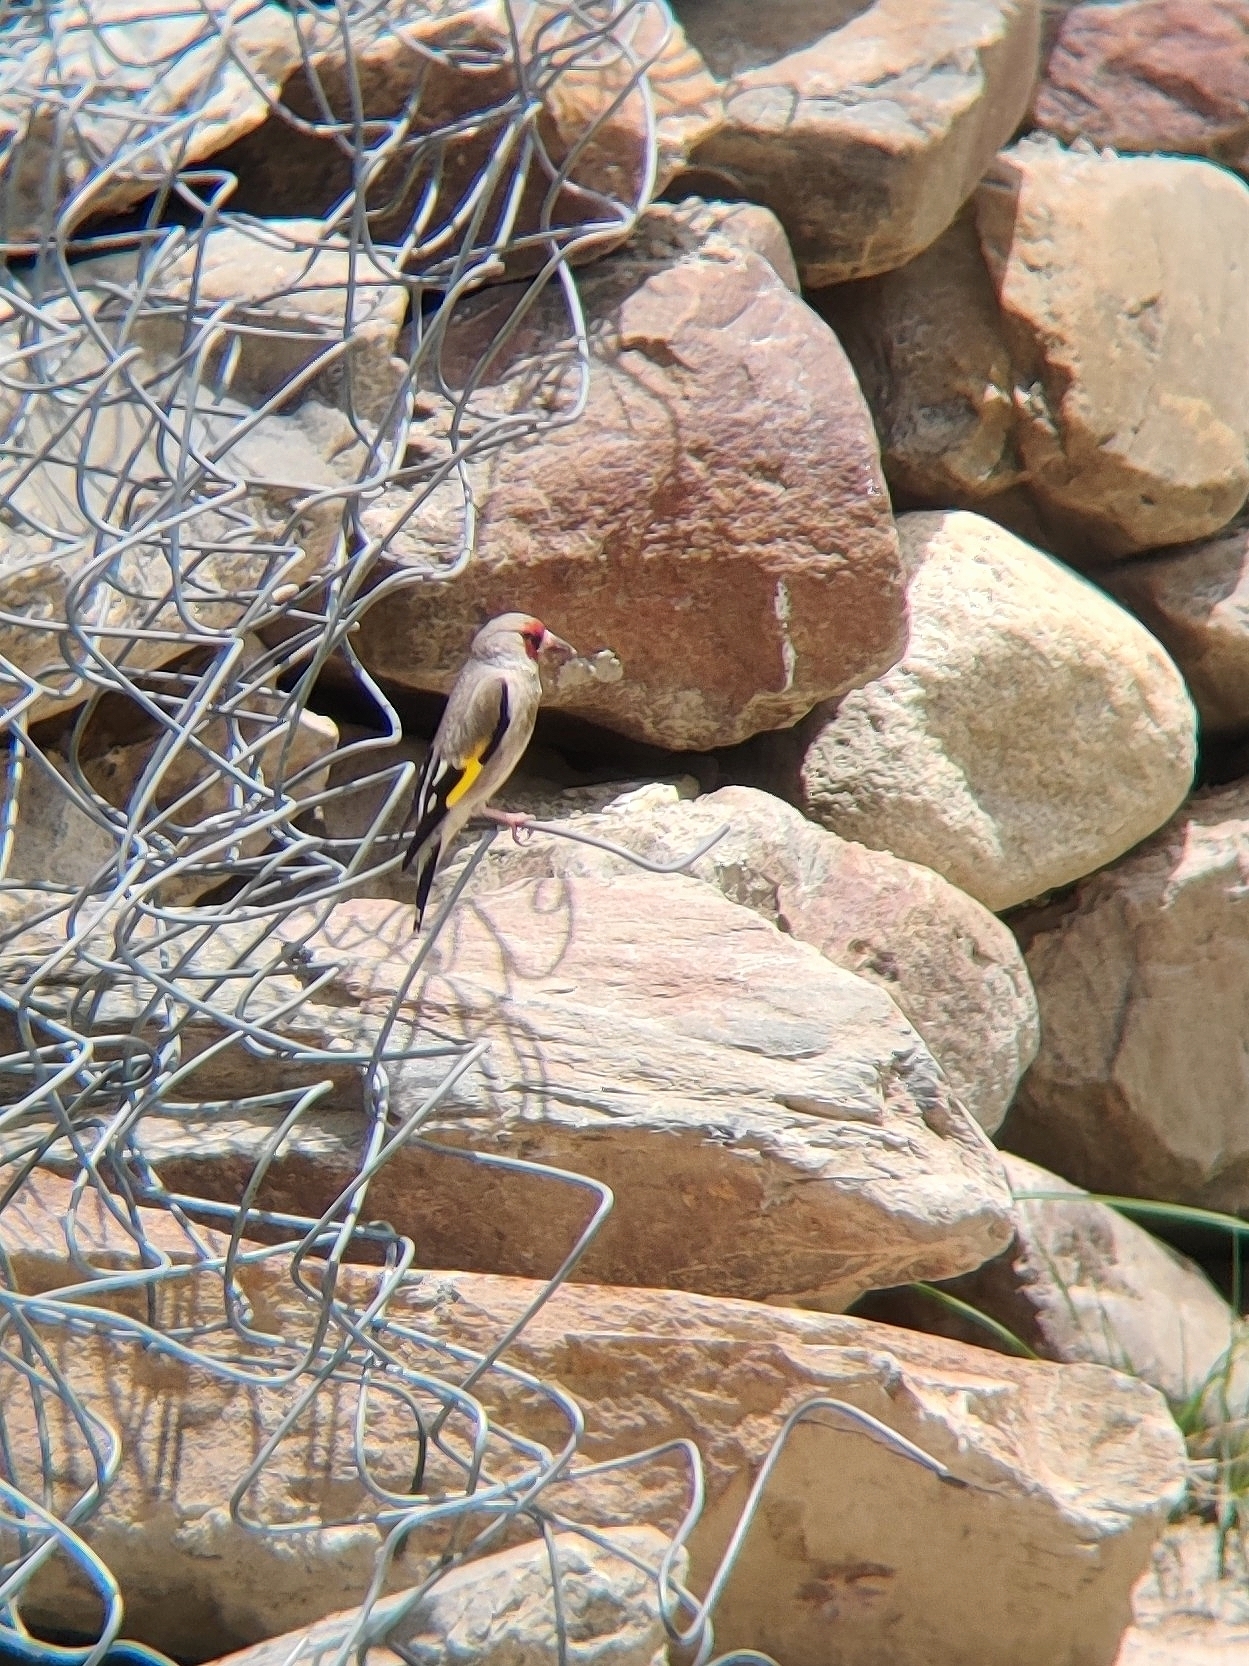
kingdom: Animalia
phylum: Chordata
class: Aves
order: Passeriformes
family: Fringillidae
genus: Carduelis
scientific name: Carduelis carduelis
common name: European goldfinch
